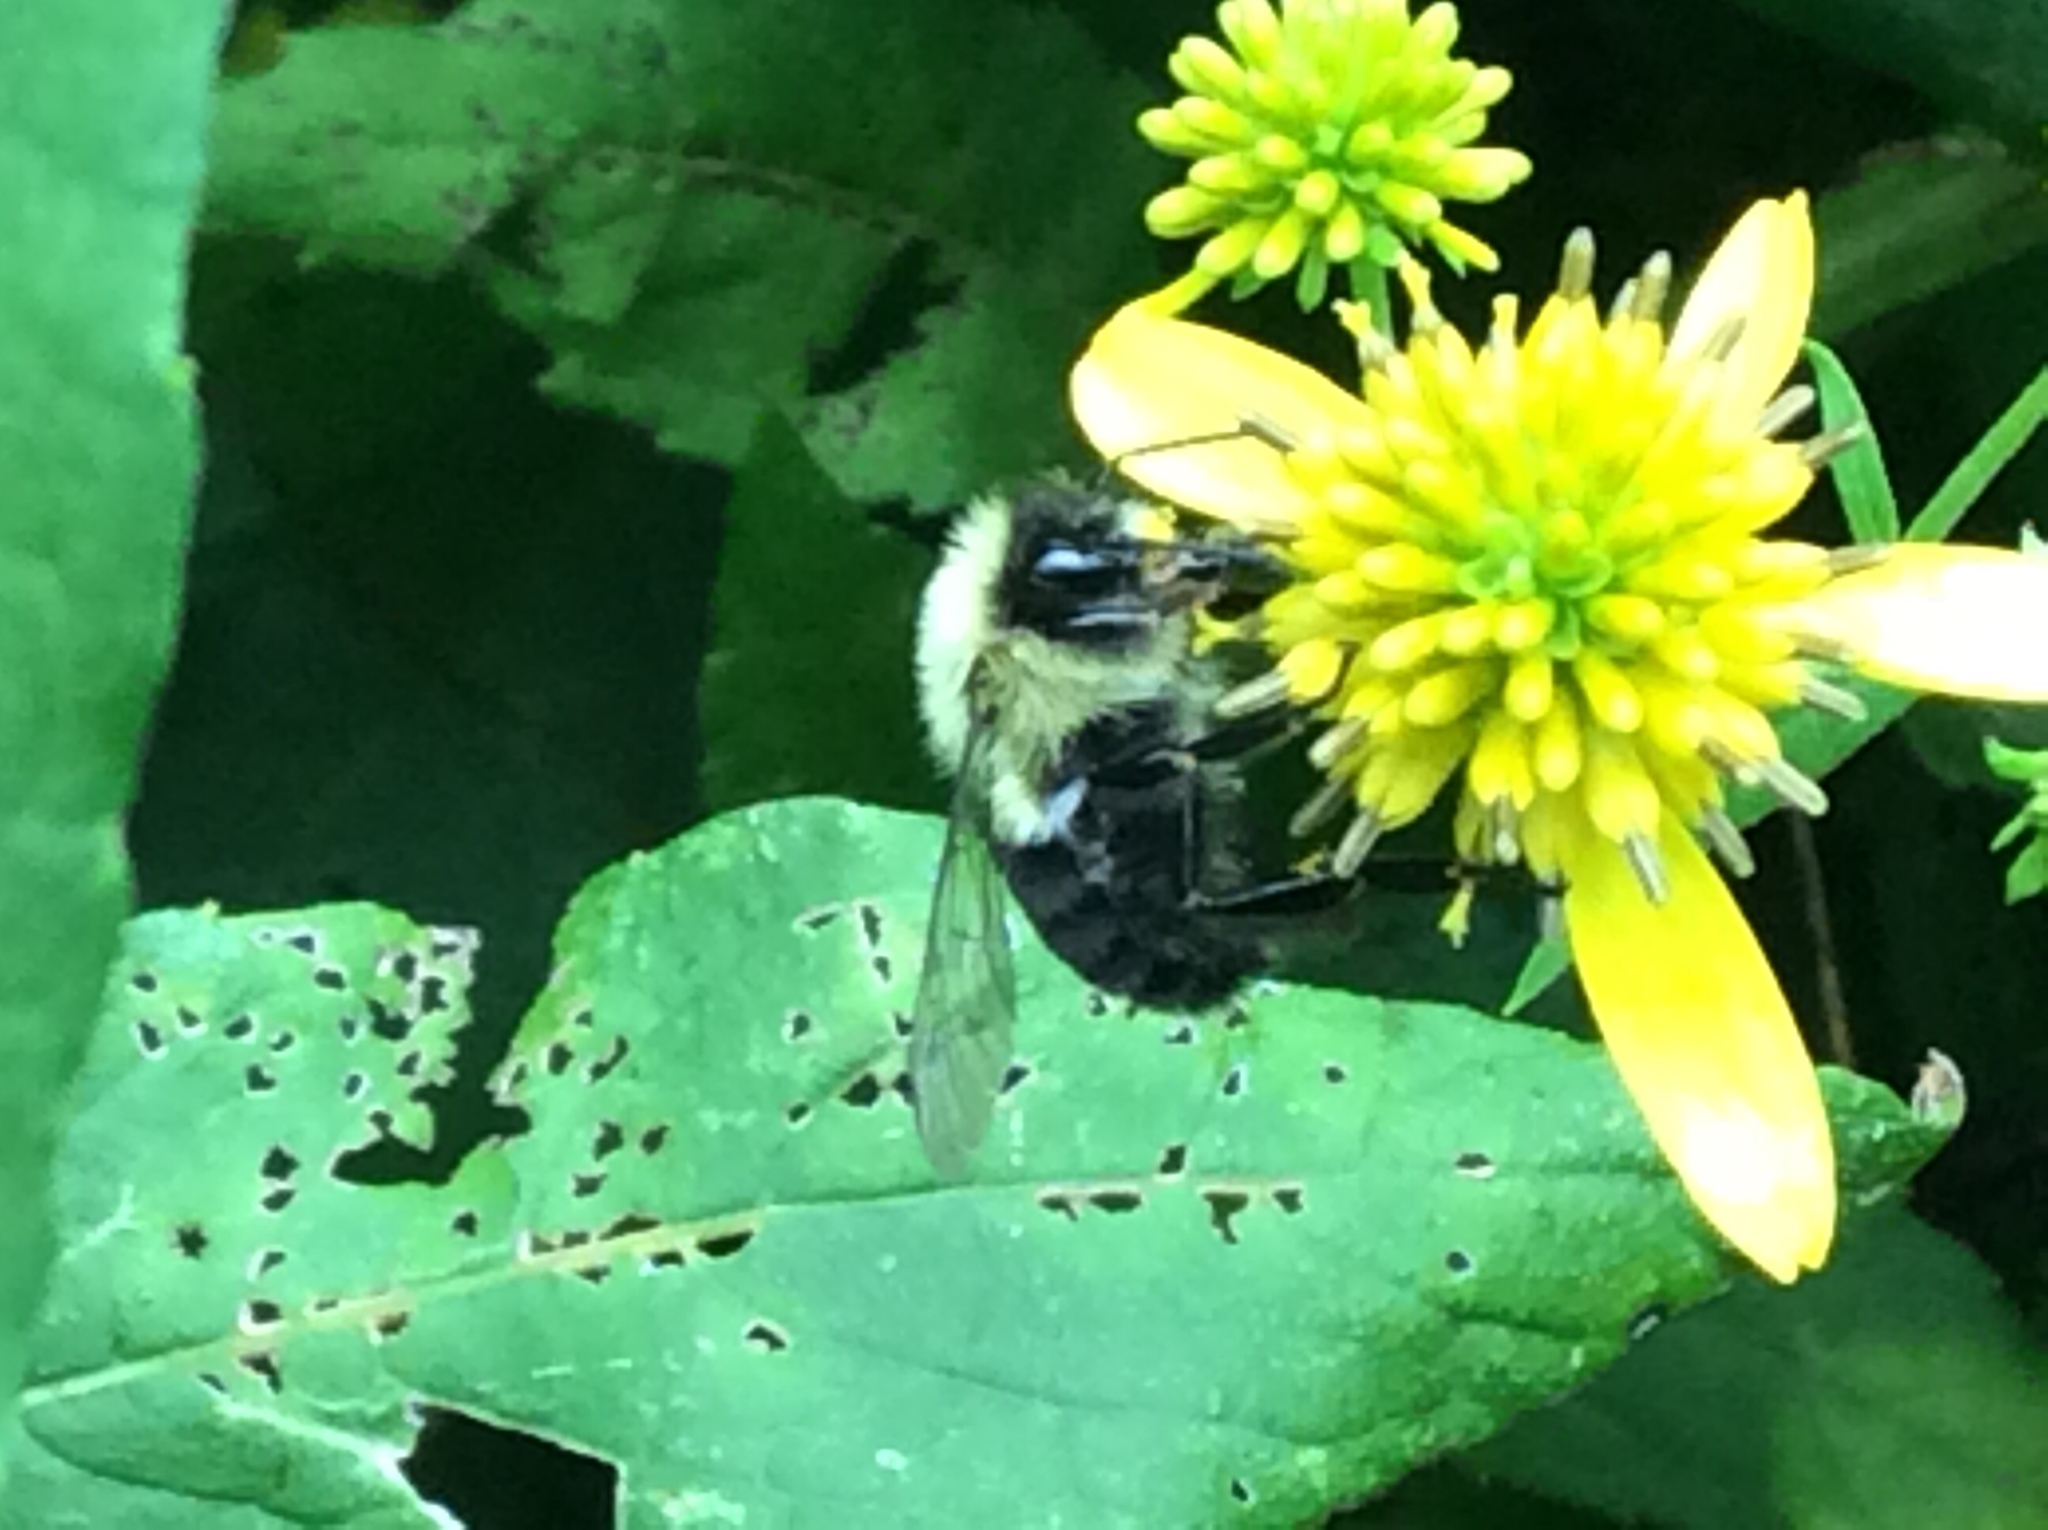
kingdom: Animalia
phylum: Arthropoda
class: Insecta
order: Hymenoptera
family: Apidae
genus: Bombus
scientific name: Bombus impatiens
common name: Common eastern bumble bee
